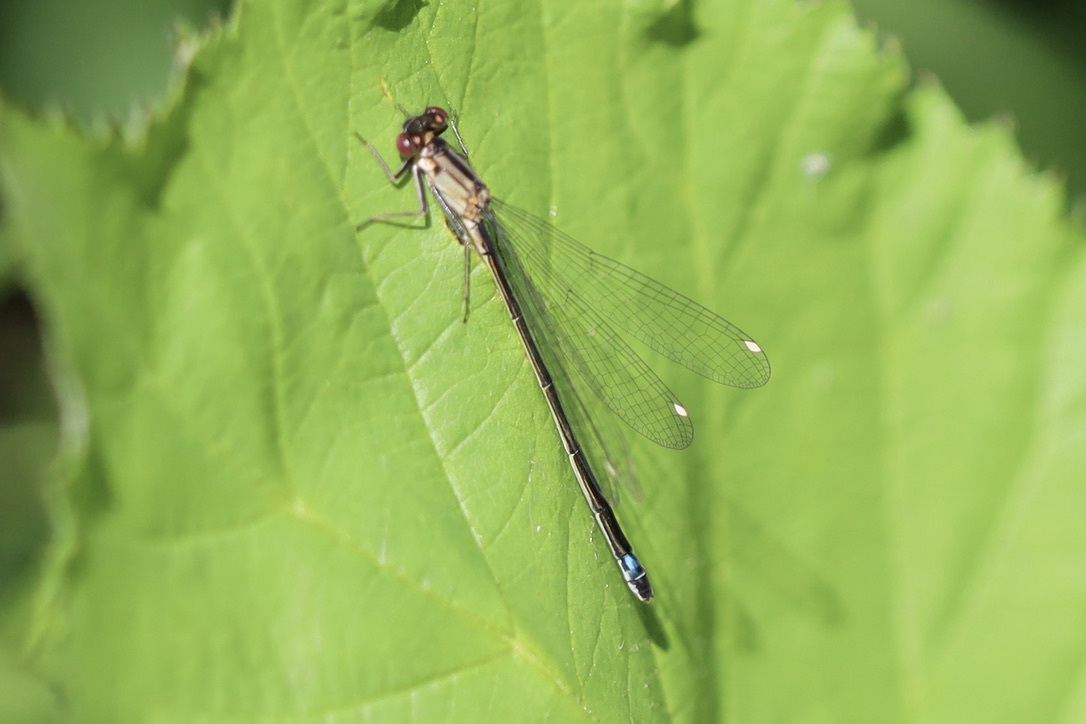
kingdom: Animalia
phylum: Arthropoda
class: Insecta
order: Odonata
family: Coenagrionidae
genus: Ischnura
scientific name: Ischnura cervula
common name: Pacific forktail
